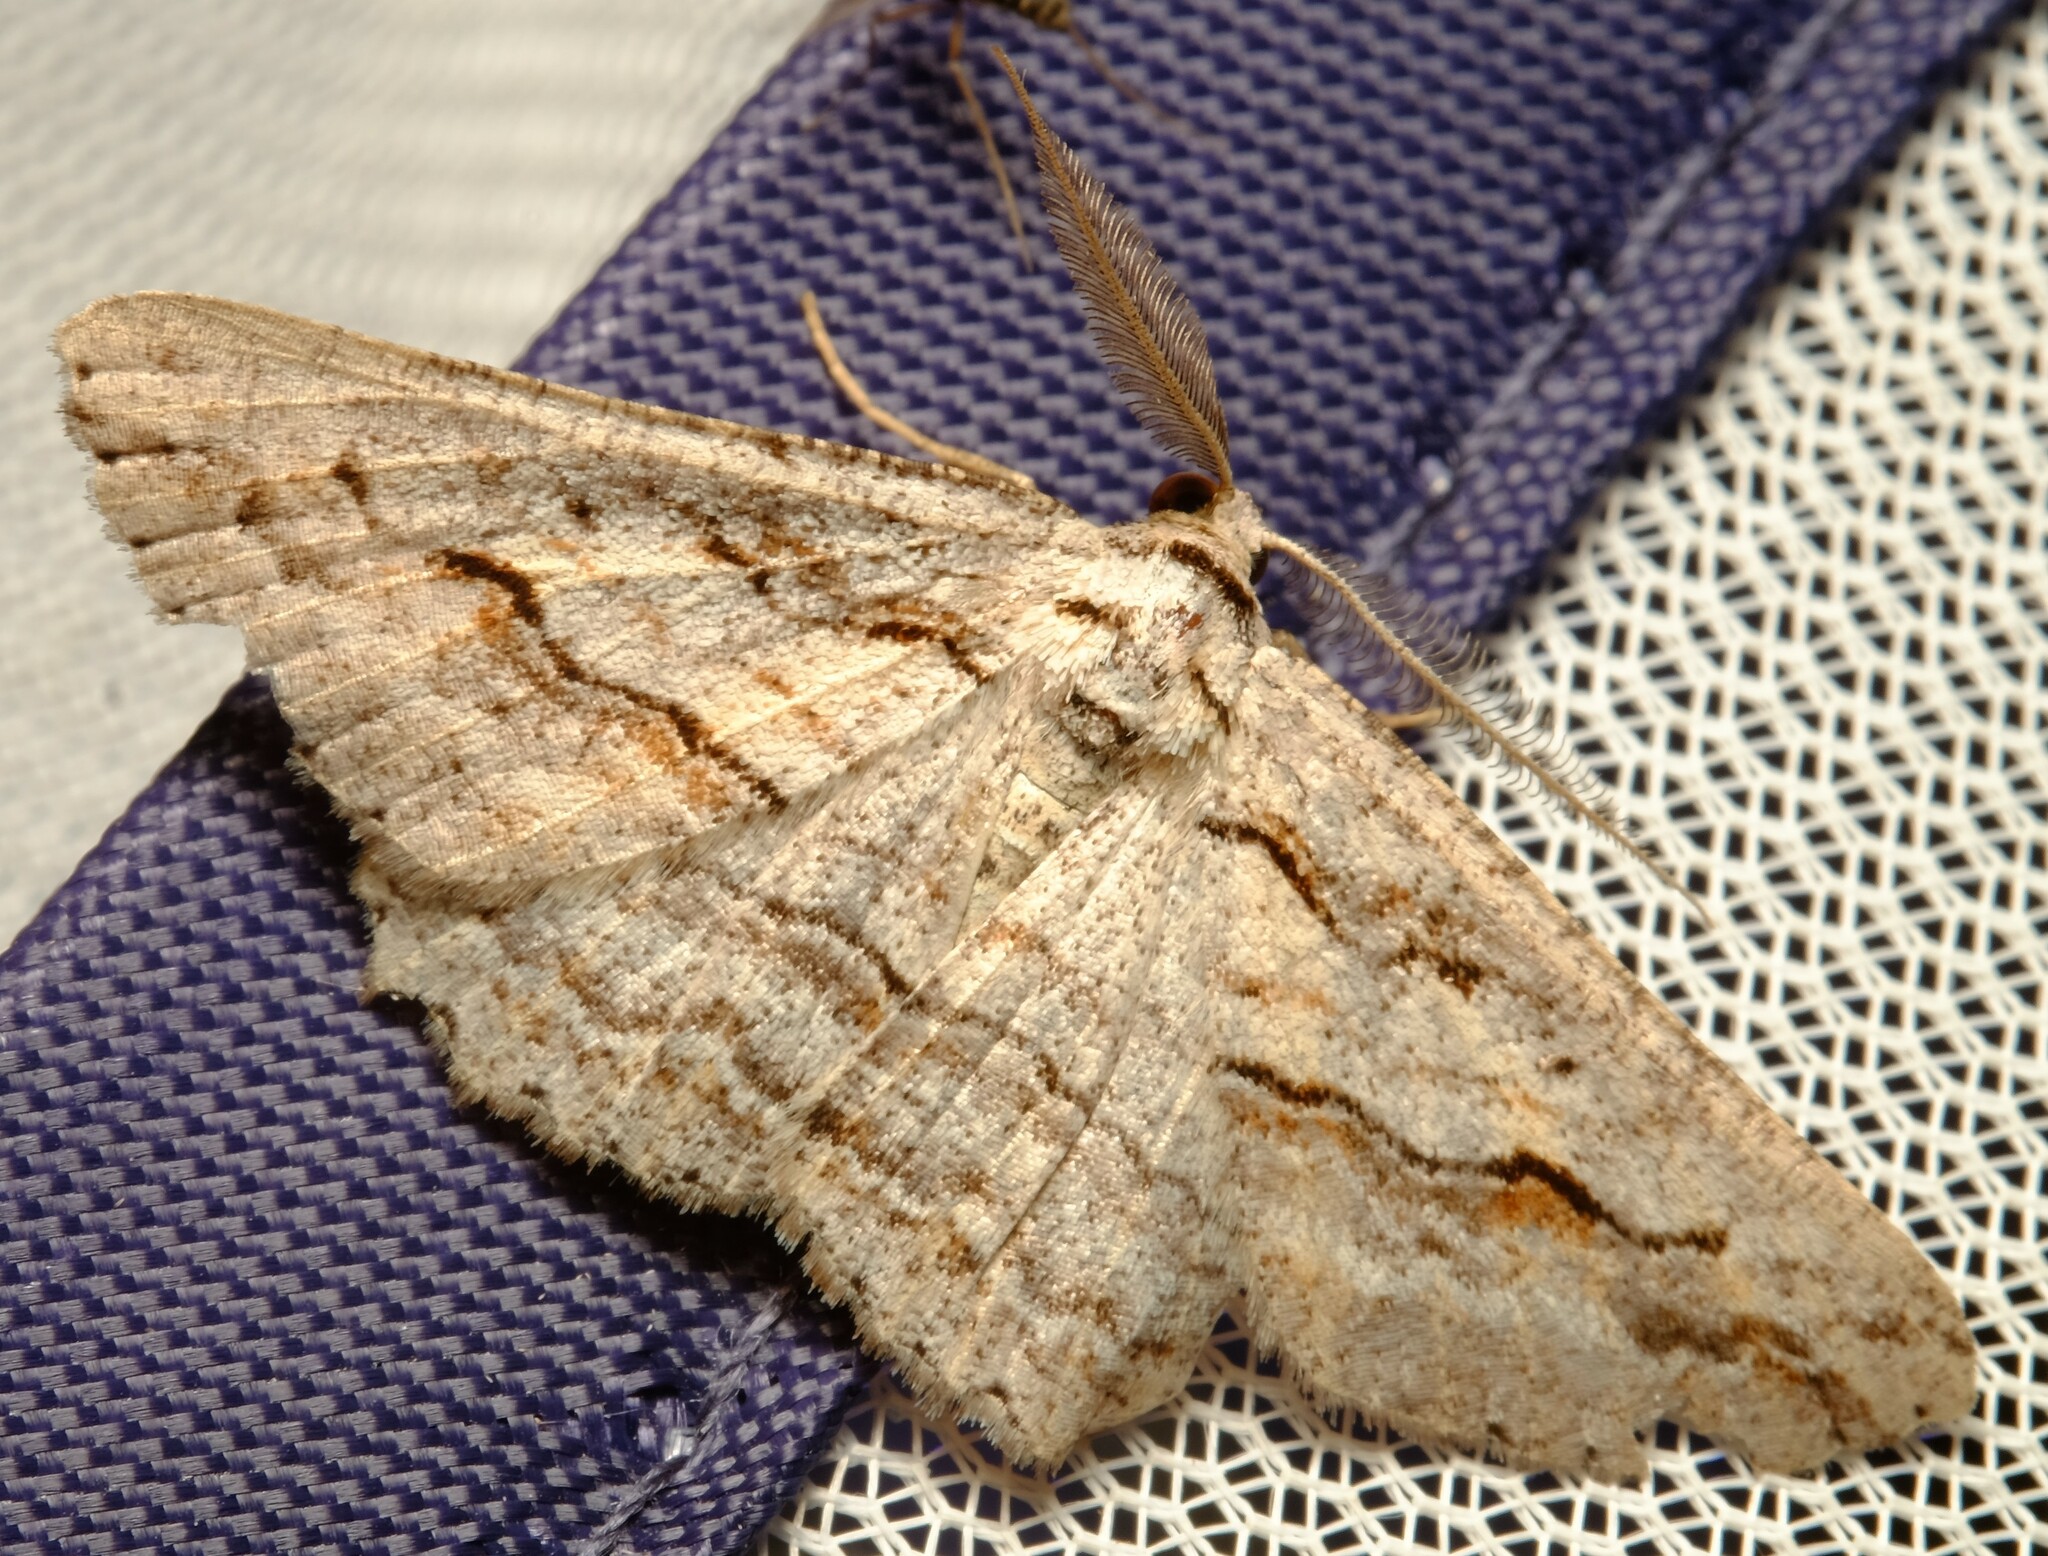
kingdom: Animalia
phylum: Arthropoda
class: Insecta
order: Lepidoptera
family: Geometridae
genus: Syneora
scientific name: Syneora mundifera
